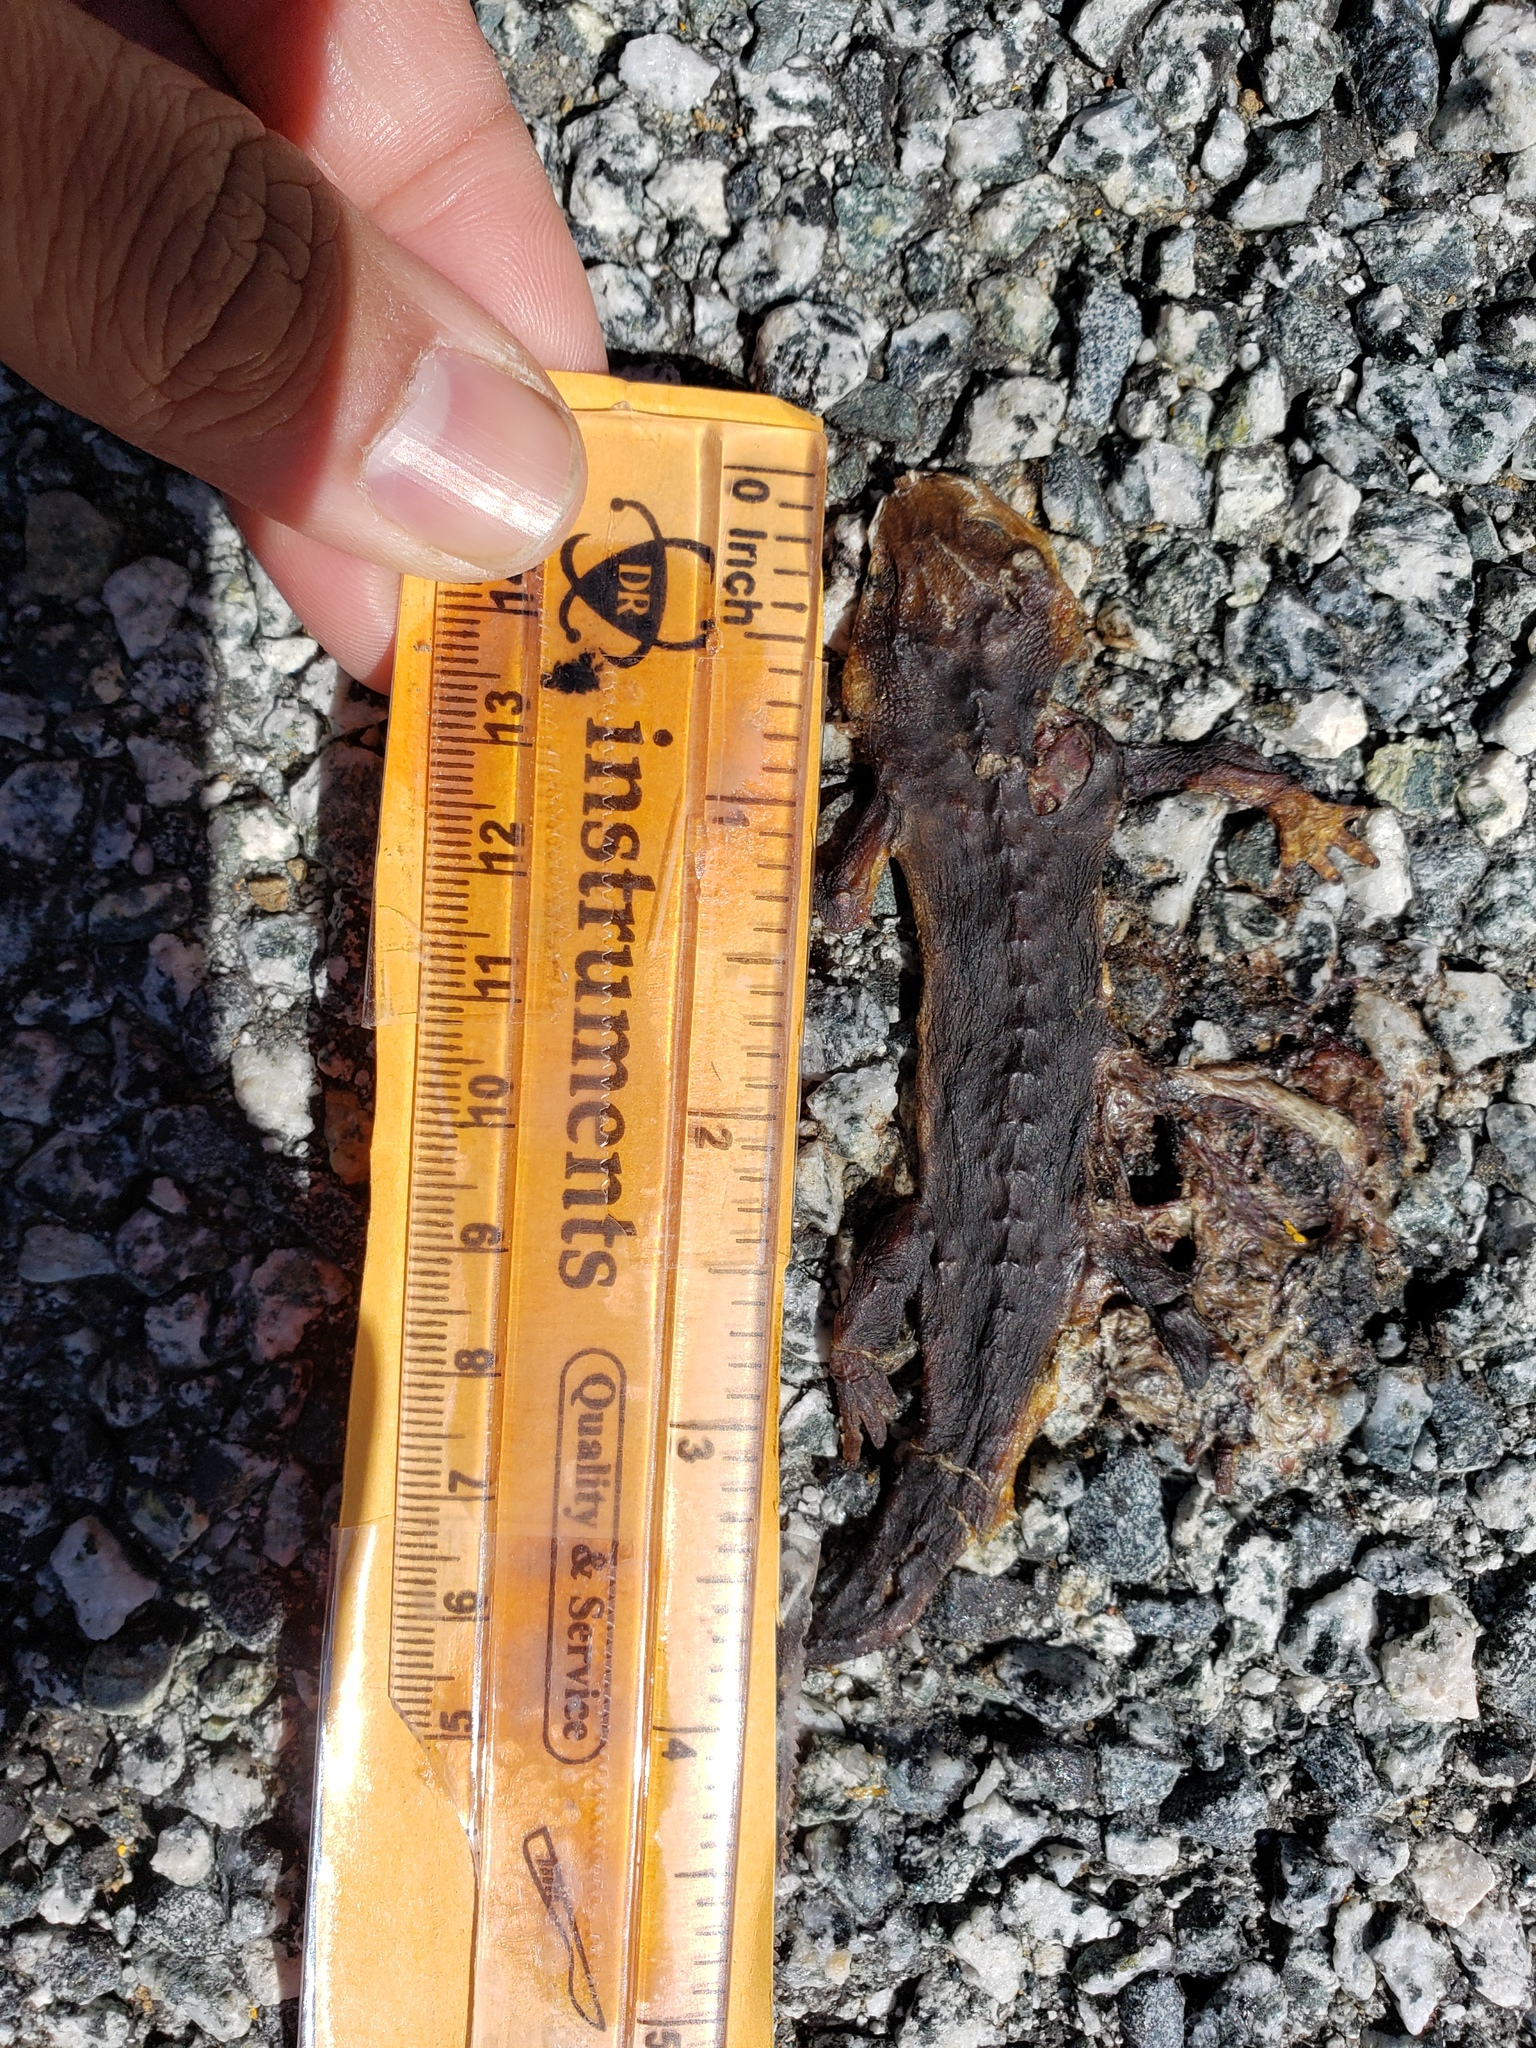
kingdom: Animalia
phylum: Chordata
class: Amphibia
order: Caudata
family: Salamandridae
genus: Taricha
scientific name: Taricha
